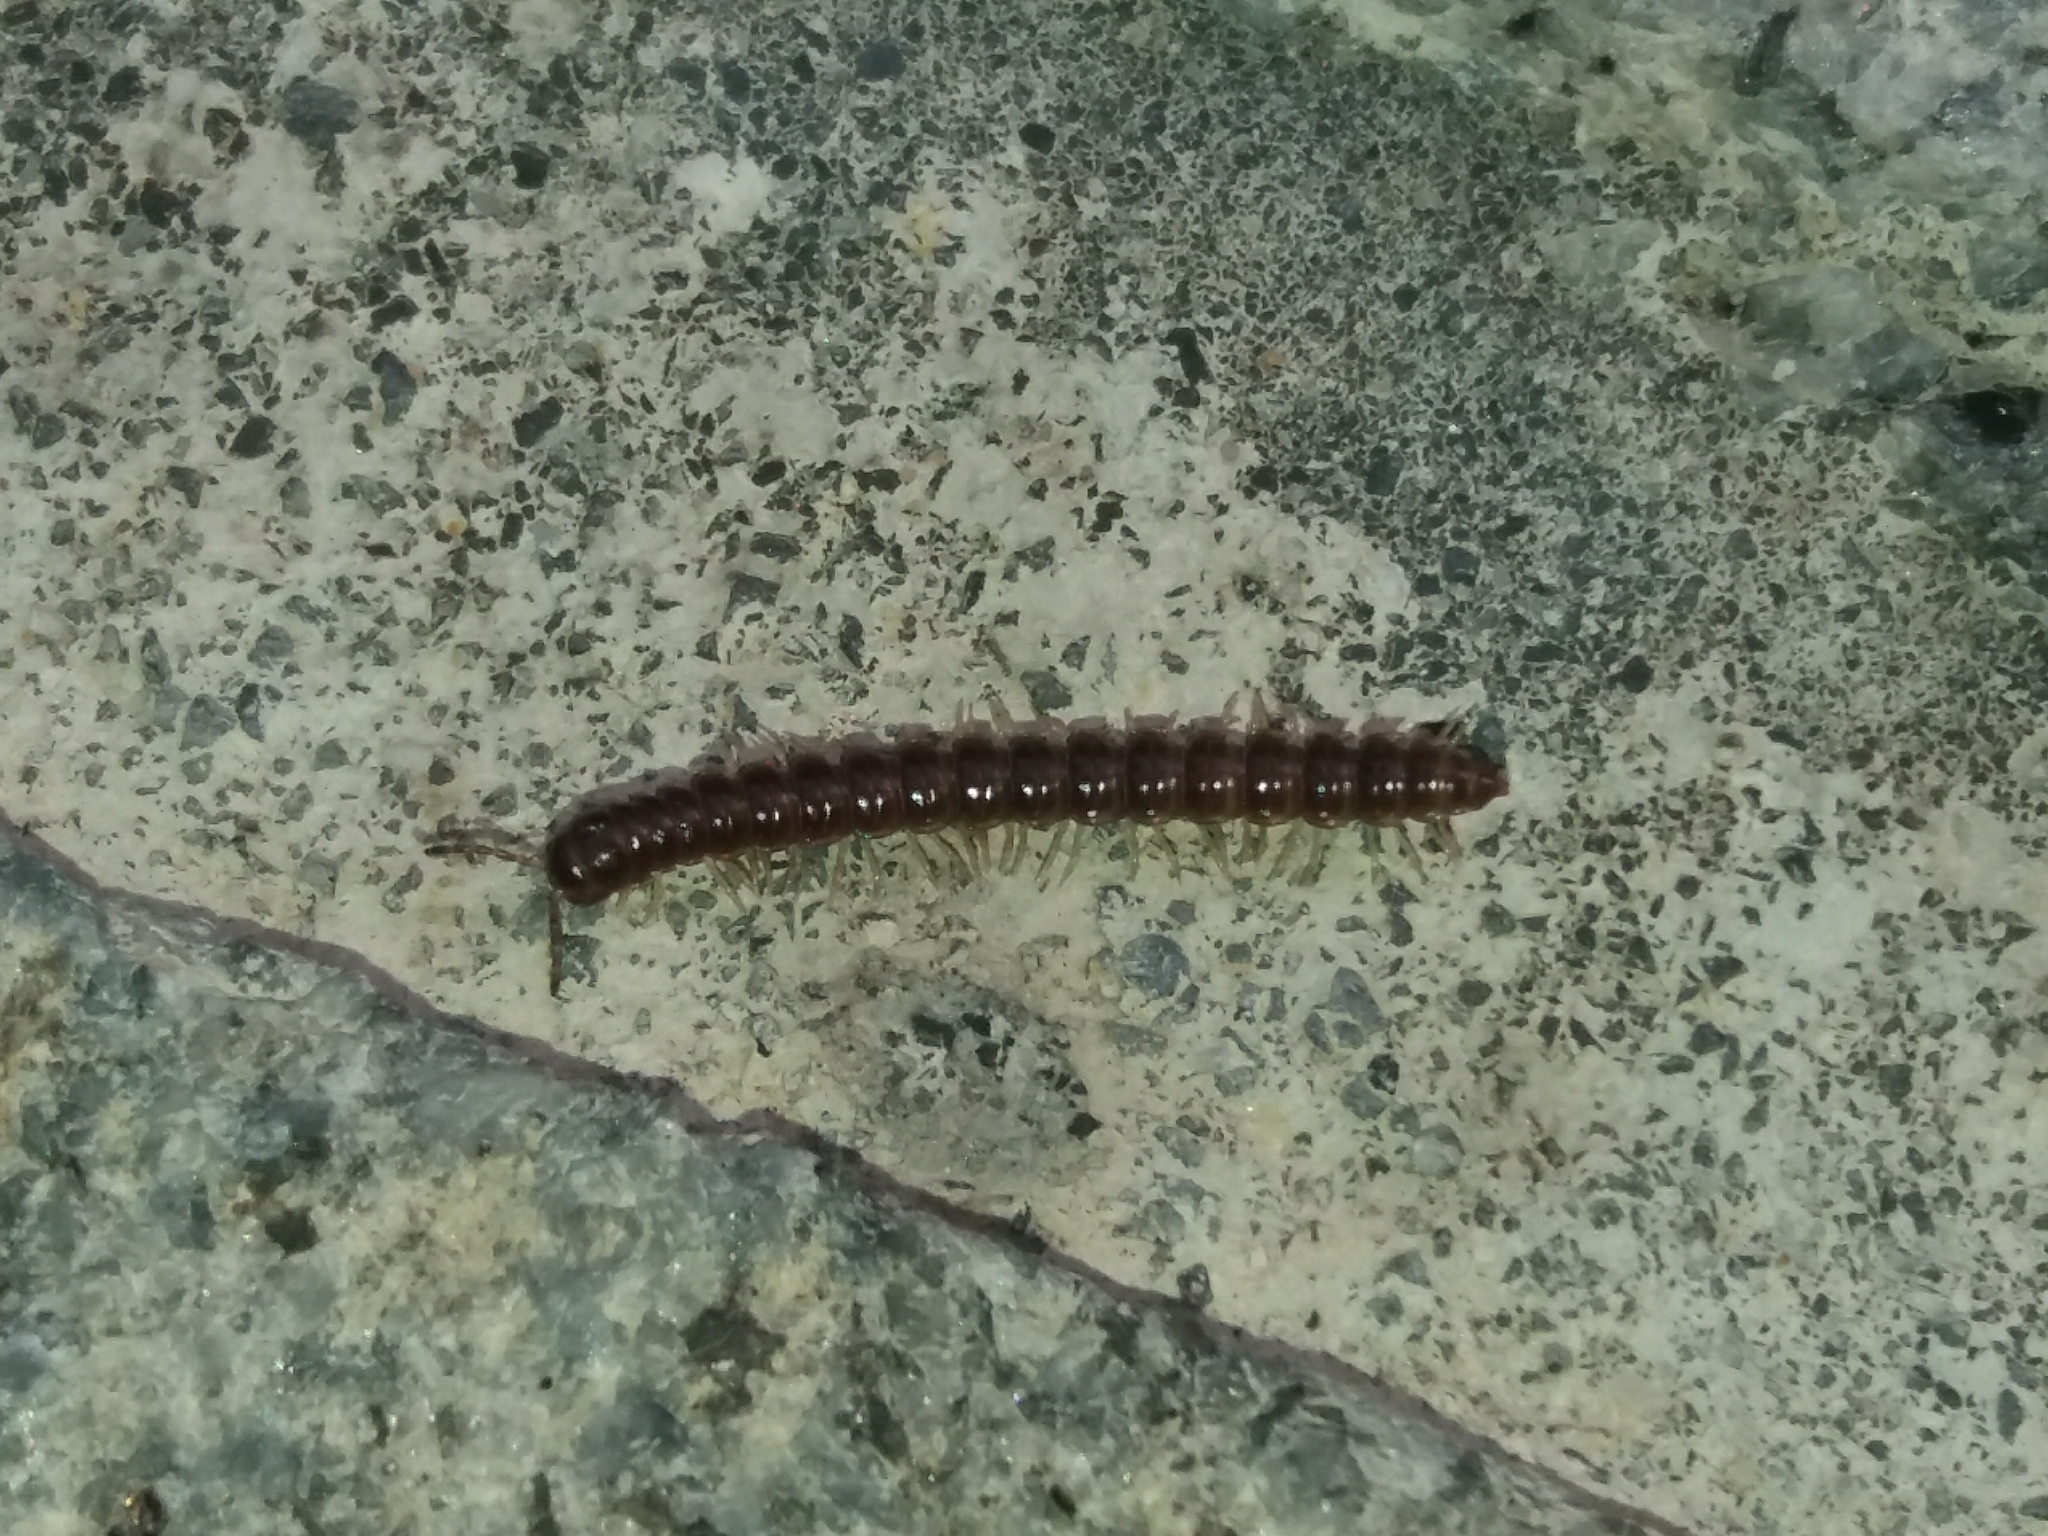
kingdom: Animalia
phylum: Arthropoda
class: Diplopoda
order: Polydesmida
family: Paradoxosomatidae
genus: Oxidus
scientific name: Oxidus gracilis
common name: Greenhouse millipede
